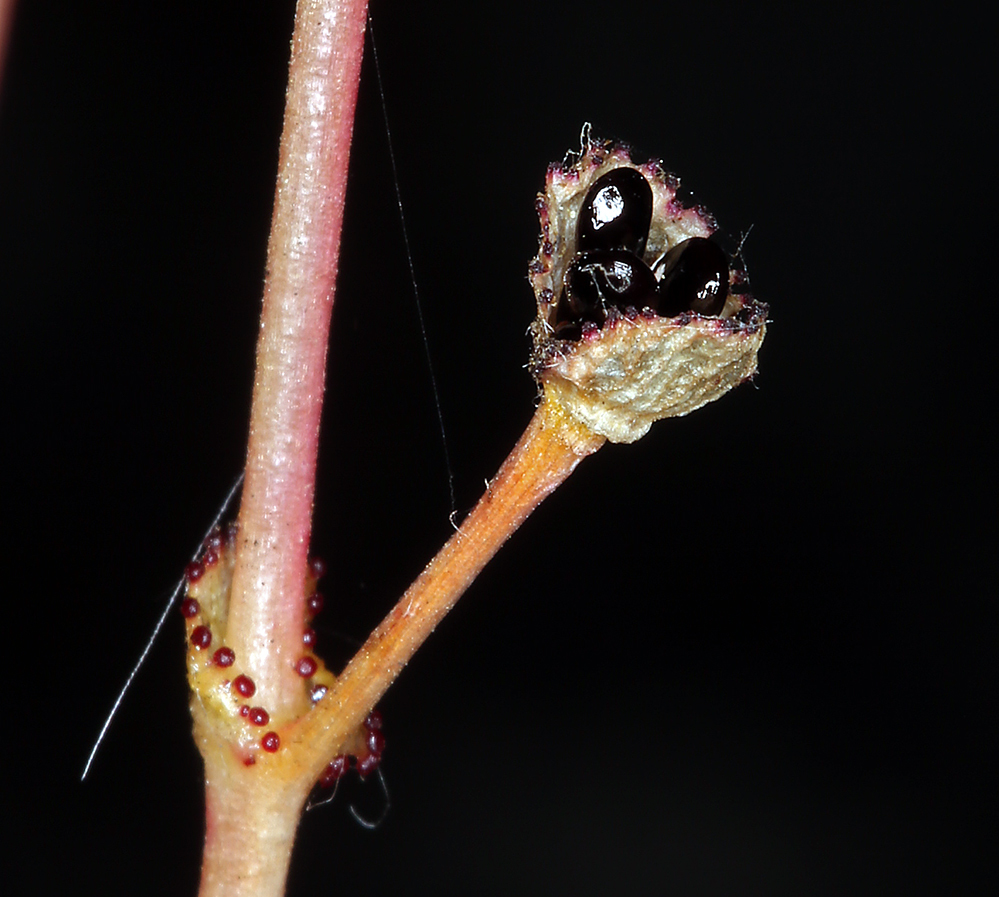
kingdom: Plantae
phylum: Tracheophyta
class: Magnoliopsida
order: Caryophyllales
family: Montiaceae
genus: Lewisia
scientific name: Lewisia congdonii
